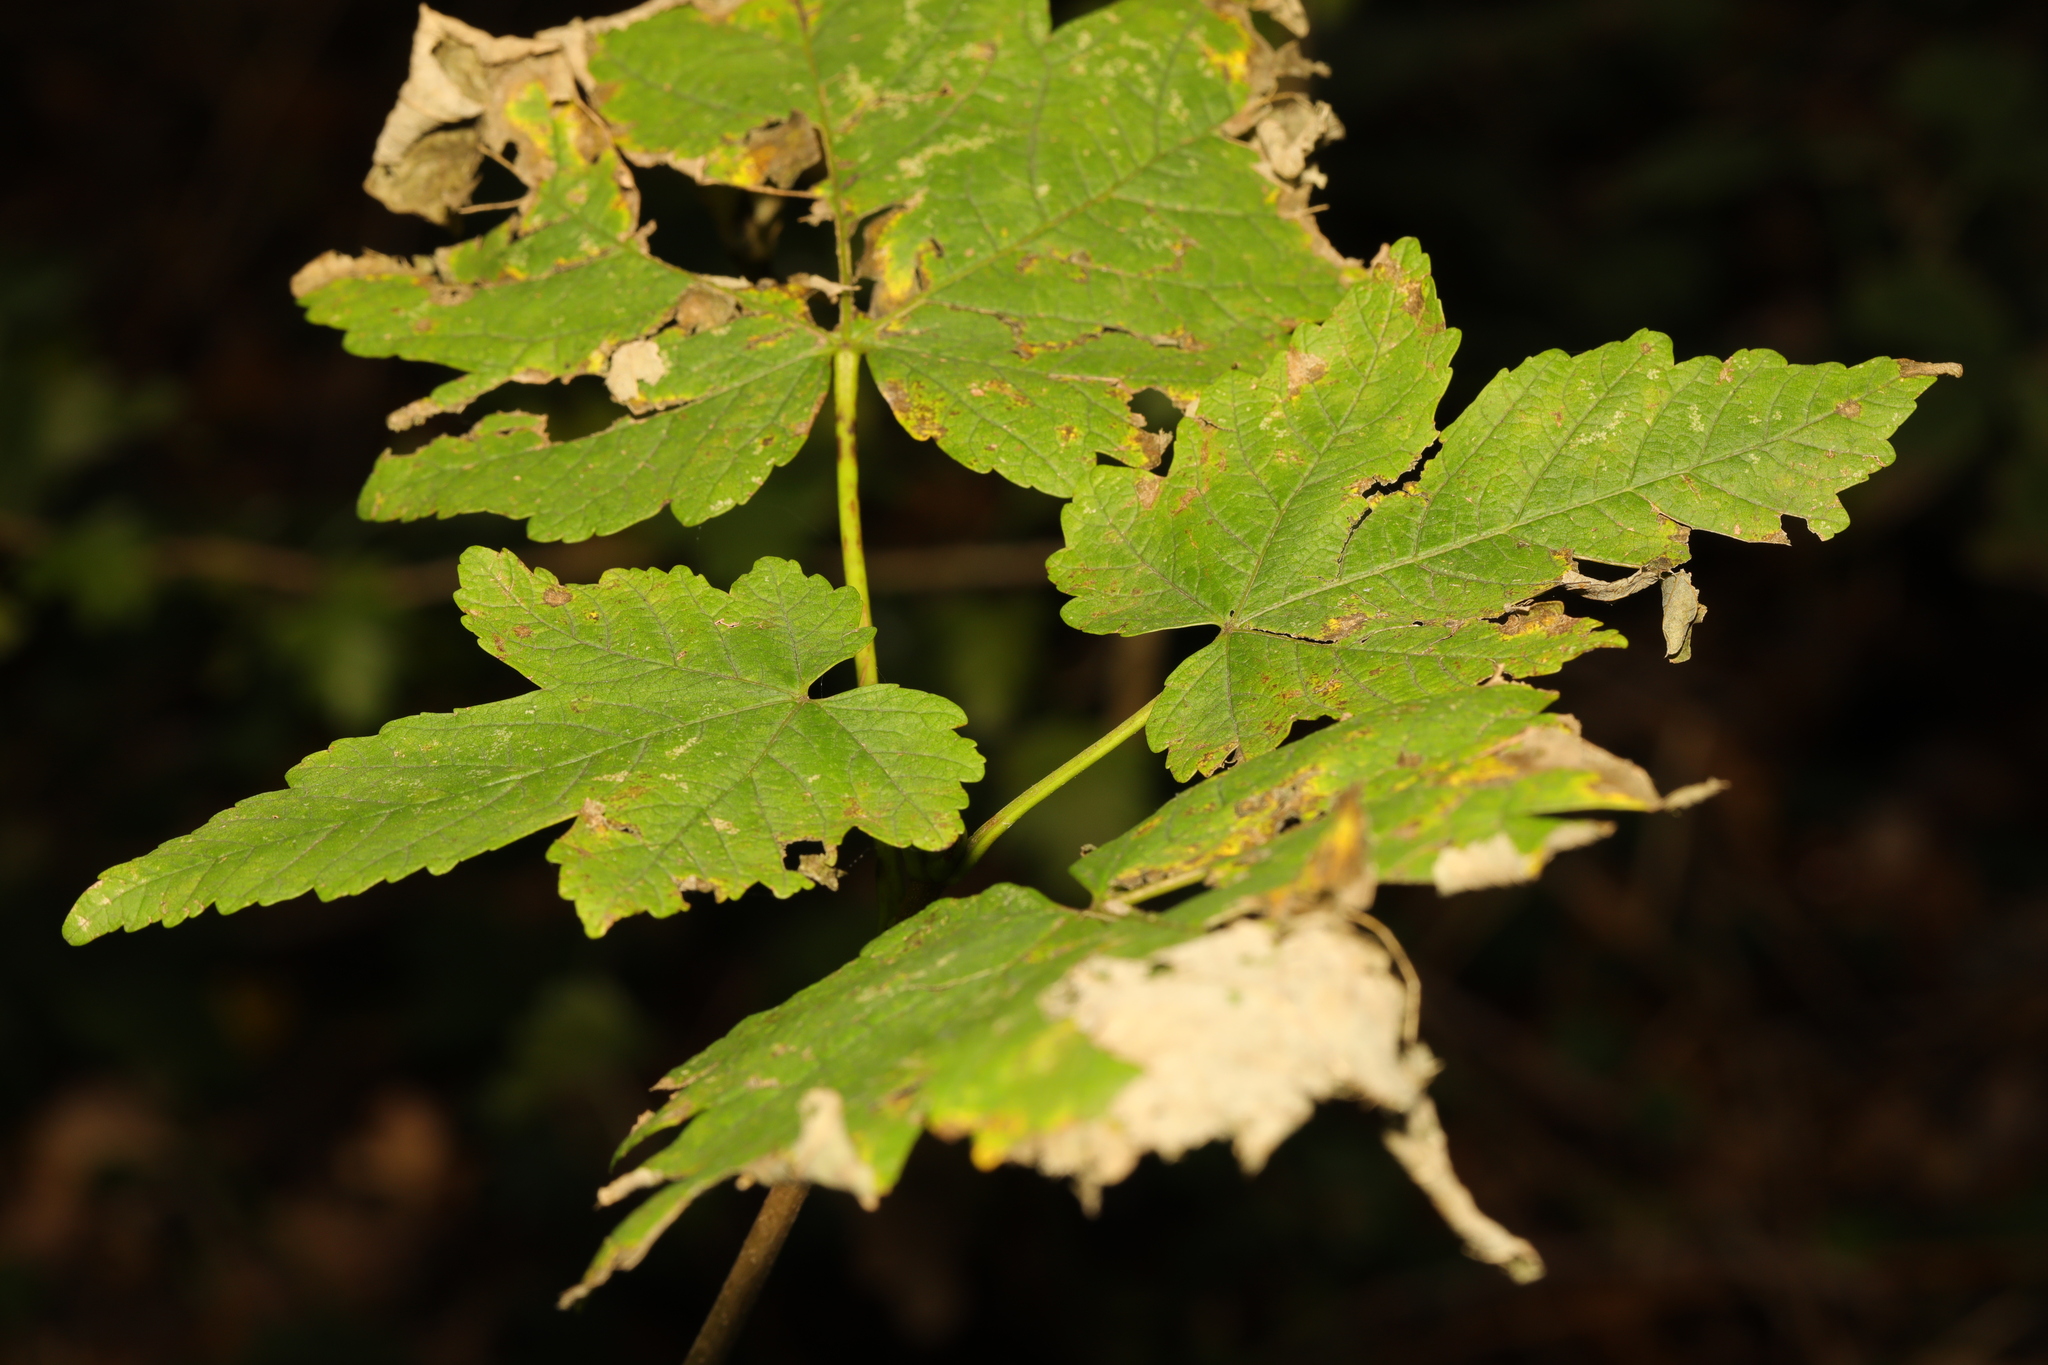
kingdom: Plantae
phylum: Tracheophyta
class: Magnoliopsida
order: Sapindales
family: Sapindaceae
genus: Acer
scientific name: Acer pseudoplatanus
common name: Sycamore
